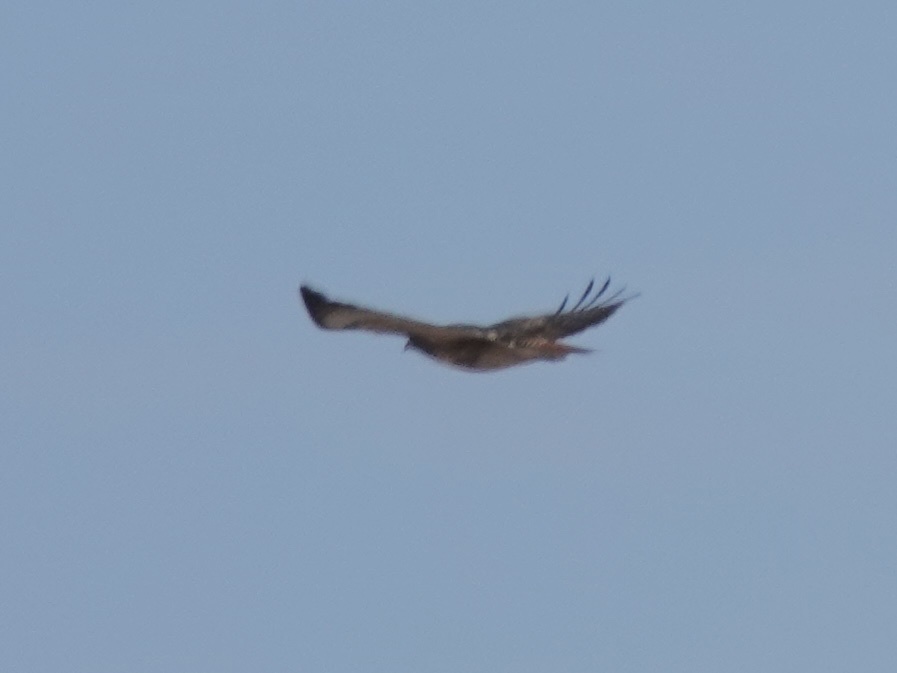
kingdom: Animalia
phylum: Chordata
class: Aves
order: Accipitriformes
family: Accipitridae
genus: Buteo
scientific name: Buteo jamaicensis
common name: Red-tailed hawk
